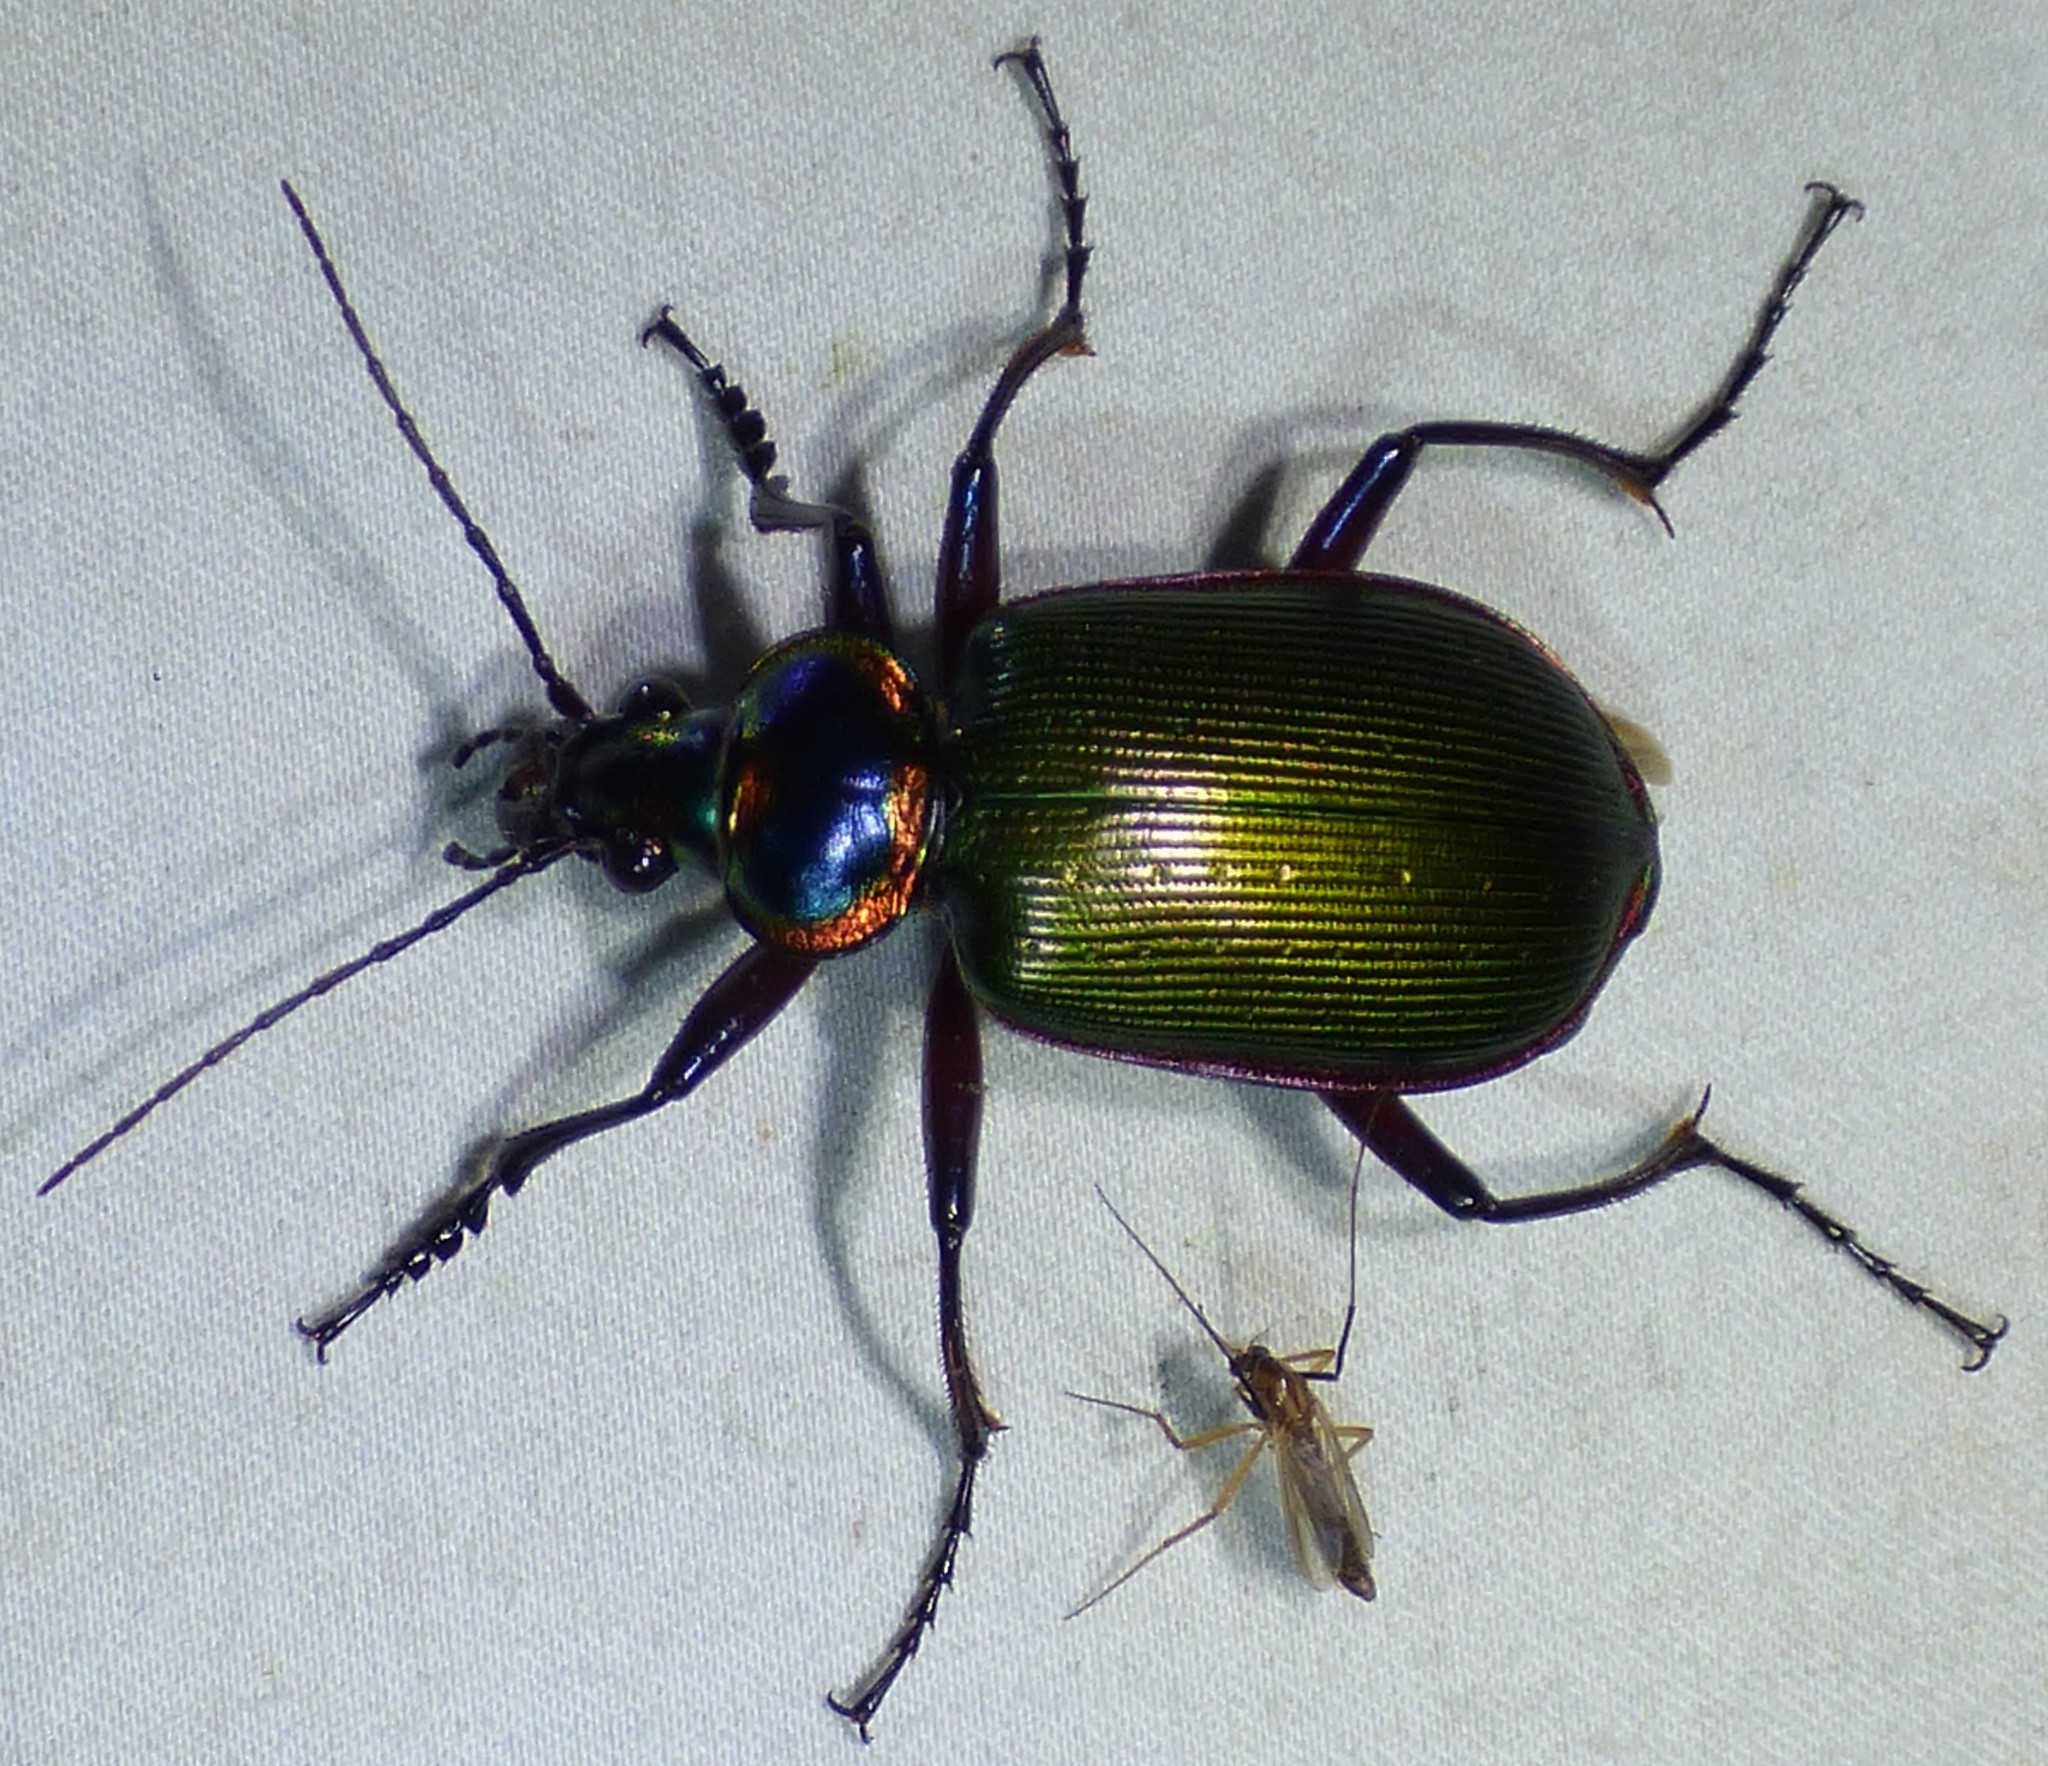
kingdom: Animalia
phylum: Arthropoda
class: Insecta
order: Coleoptera
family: Carabidae
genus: Calosoma
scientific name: Calosoma scrutator
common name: Fiery searcher beetle
